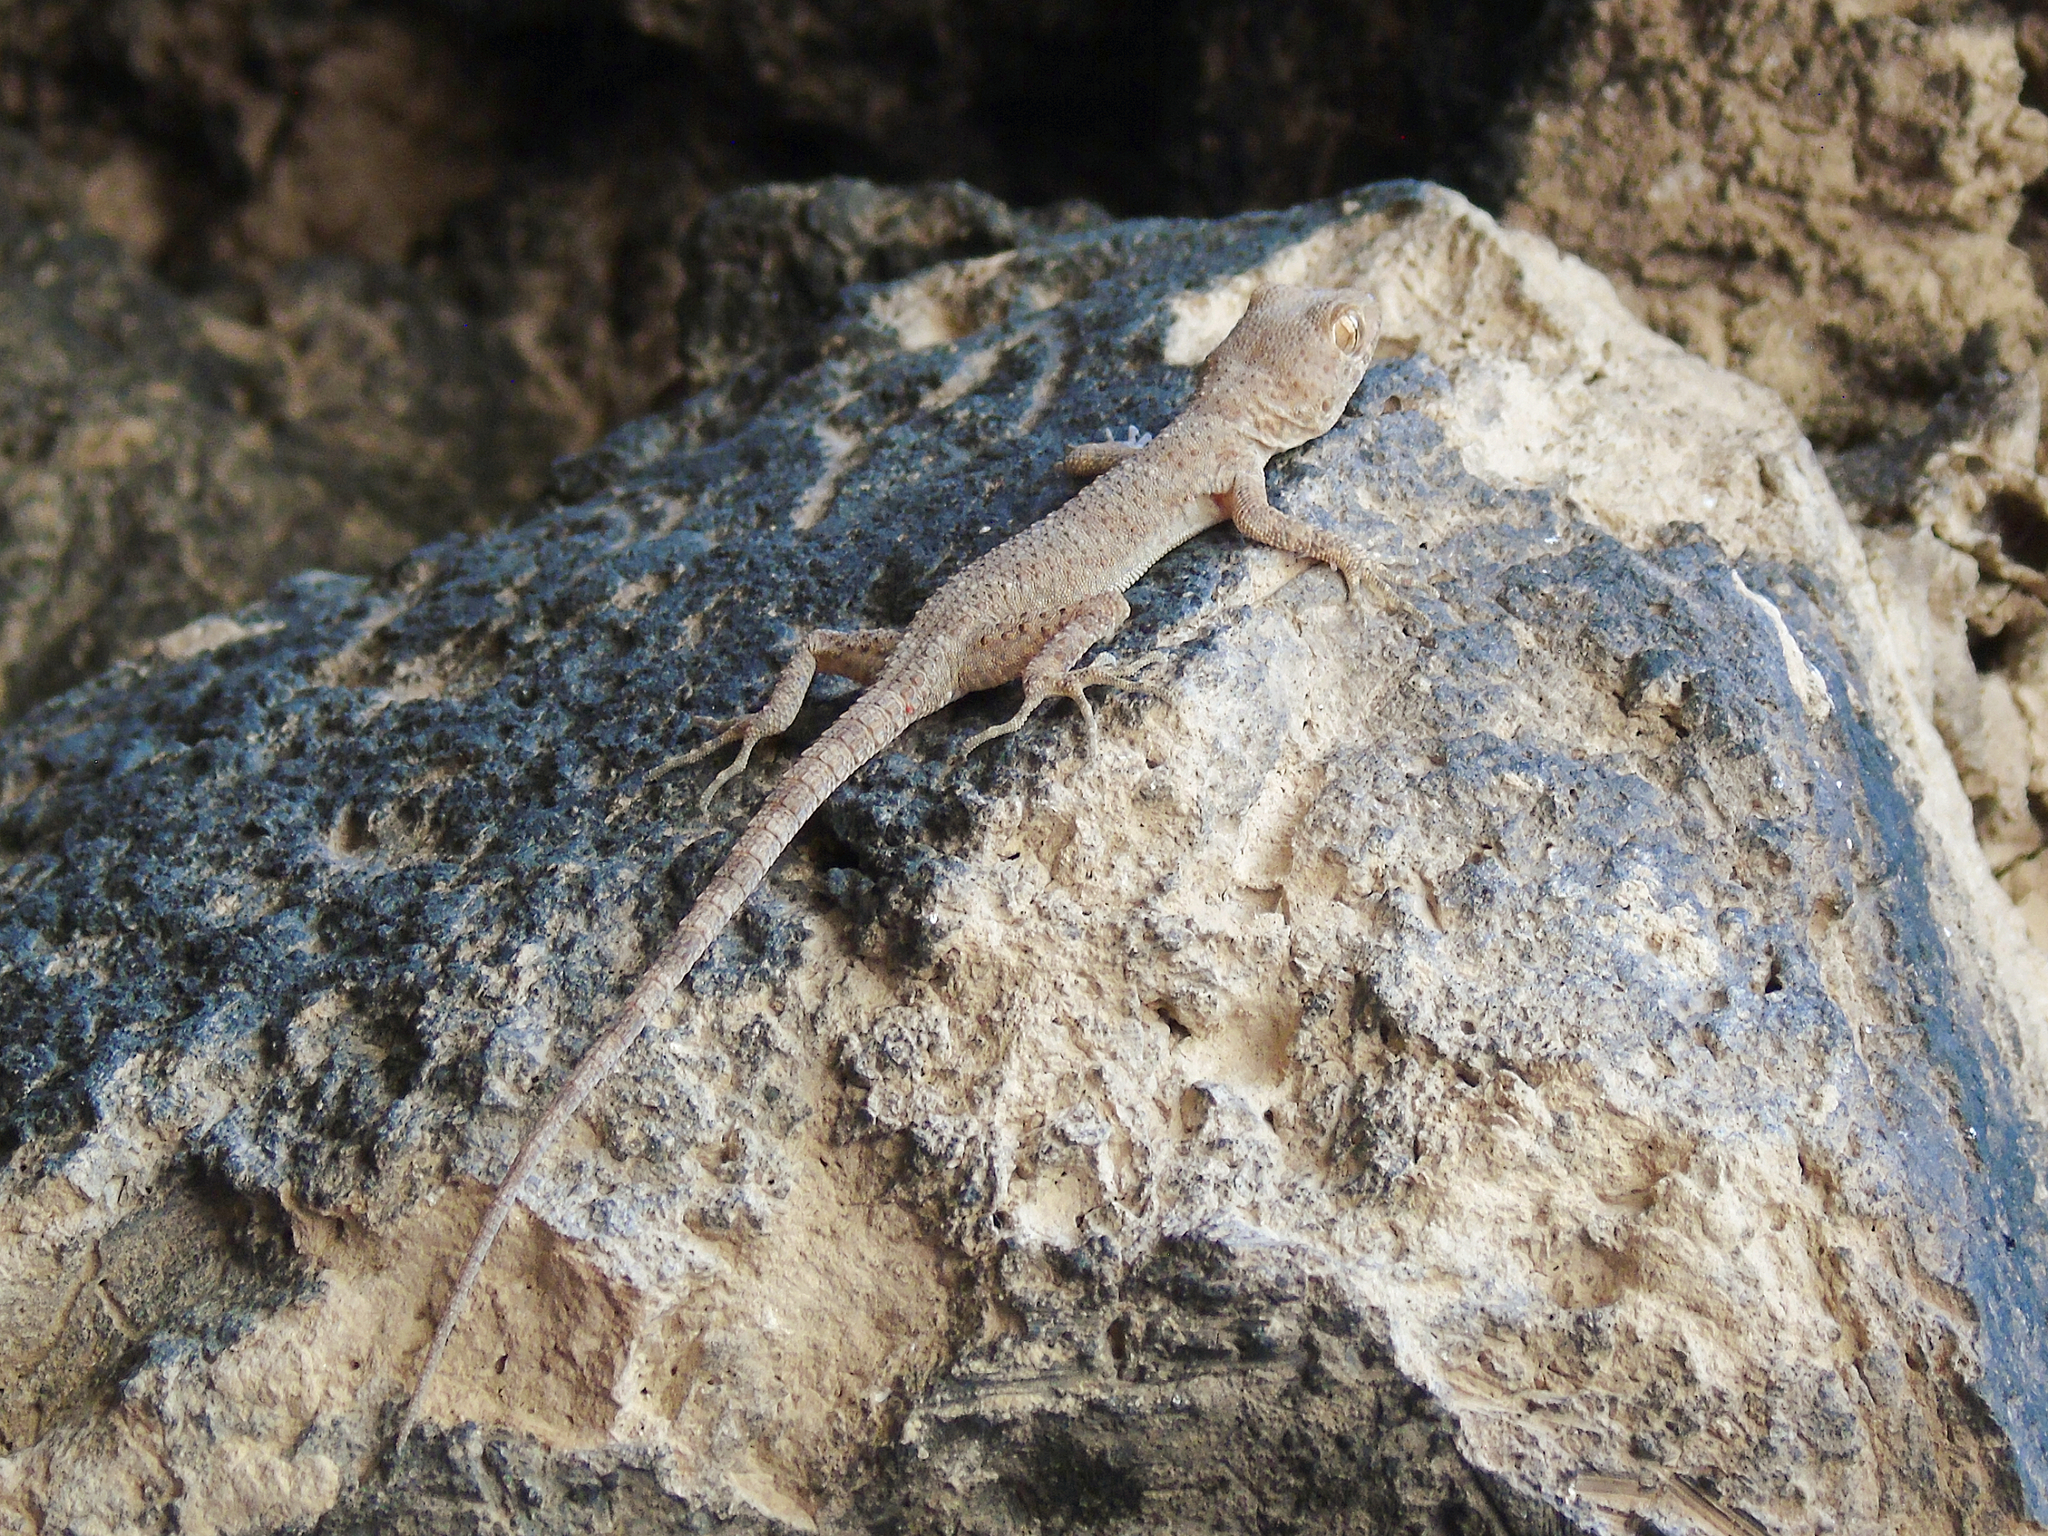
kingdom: Animalia
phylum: Chordata
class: Squamata
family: Gekkonidae
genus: Tenuidactylus
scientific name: Tenuidactylus bogdanovi
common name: Bogdanov’s thin-toed gecko
